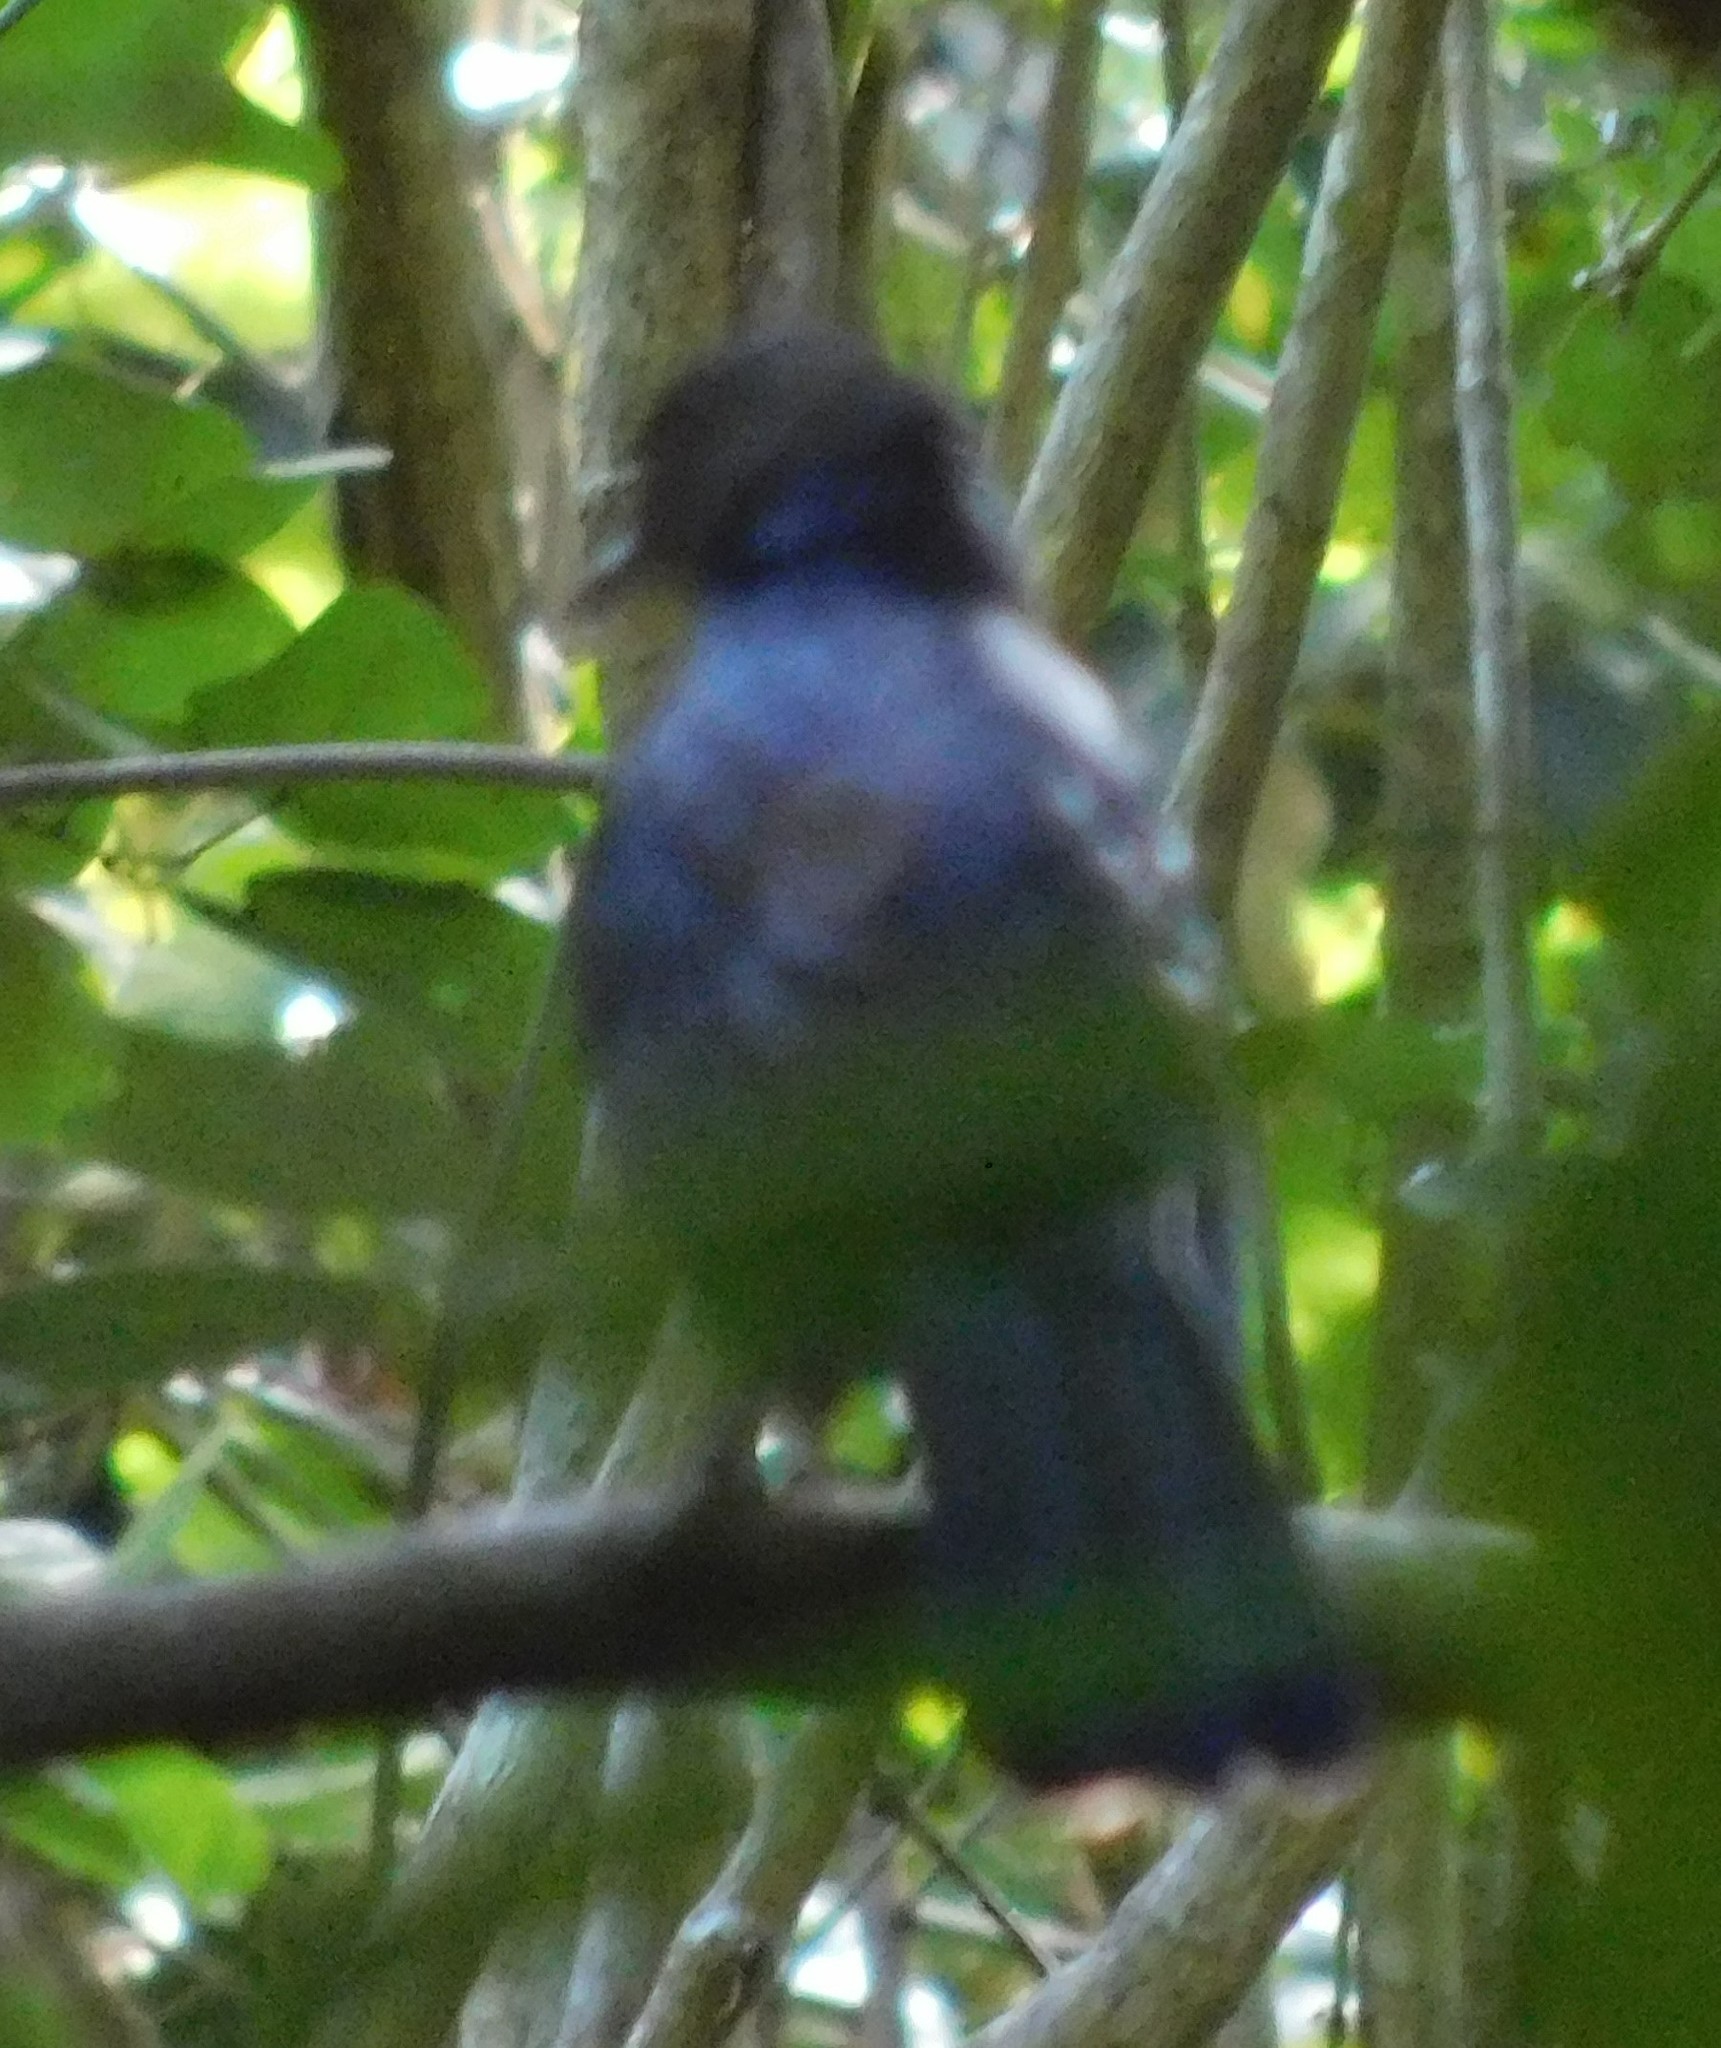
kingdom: Animalia
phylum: Chordata
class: Aves
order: Passeriformes
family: Mimidae
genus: Melanoptila
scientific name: Melanoptila glabrirostris
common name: Black catbird
